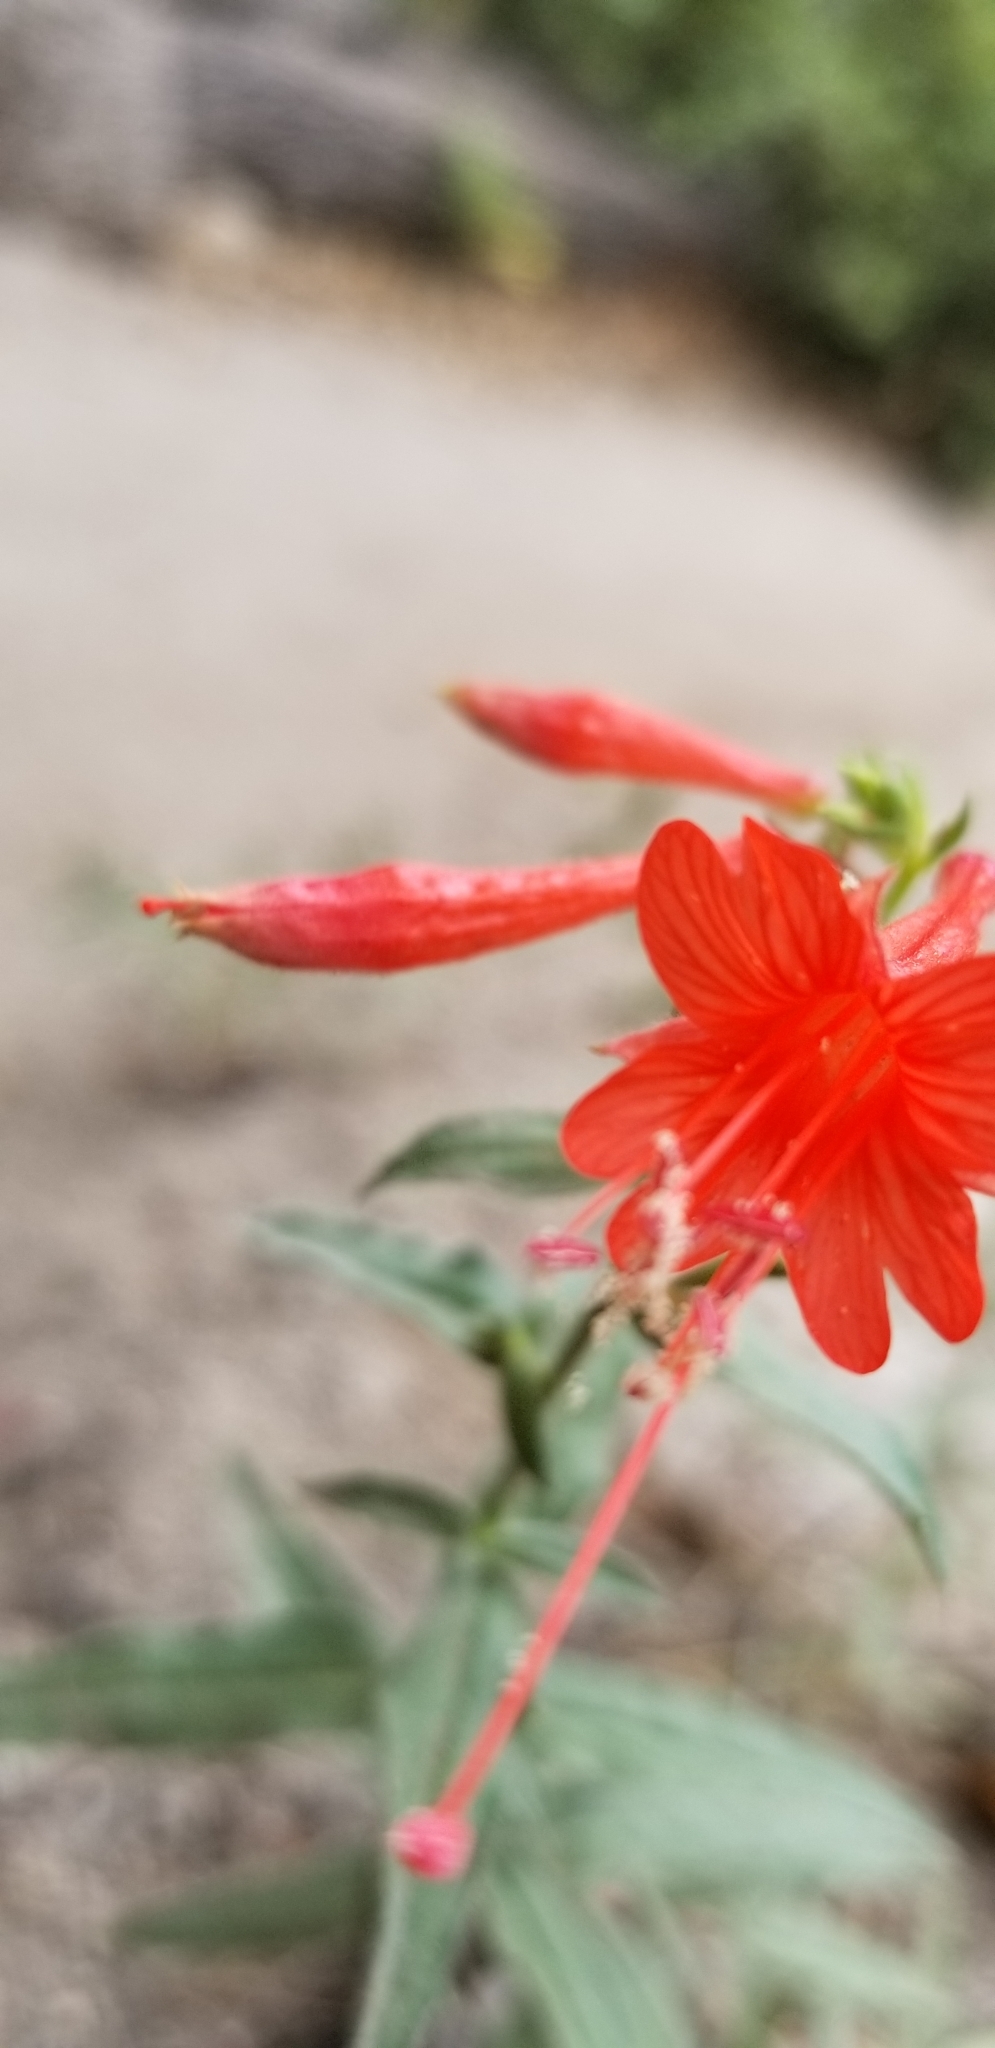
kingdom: Plantae
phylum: Tracheophyta
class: Magnoliopsida
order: Myrtales
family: Onagraceae
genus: Epilobium
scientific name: Epilobium canum
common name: California-fuchsia
